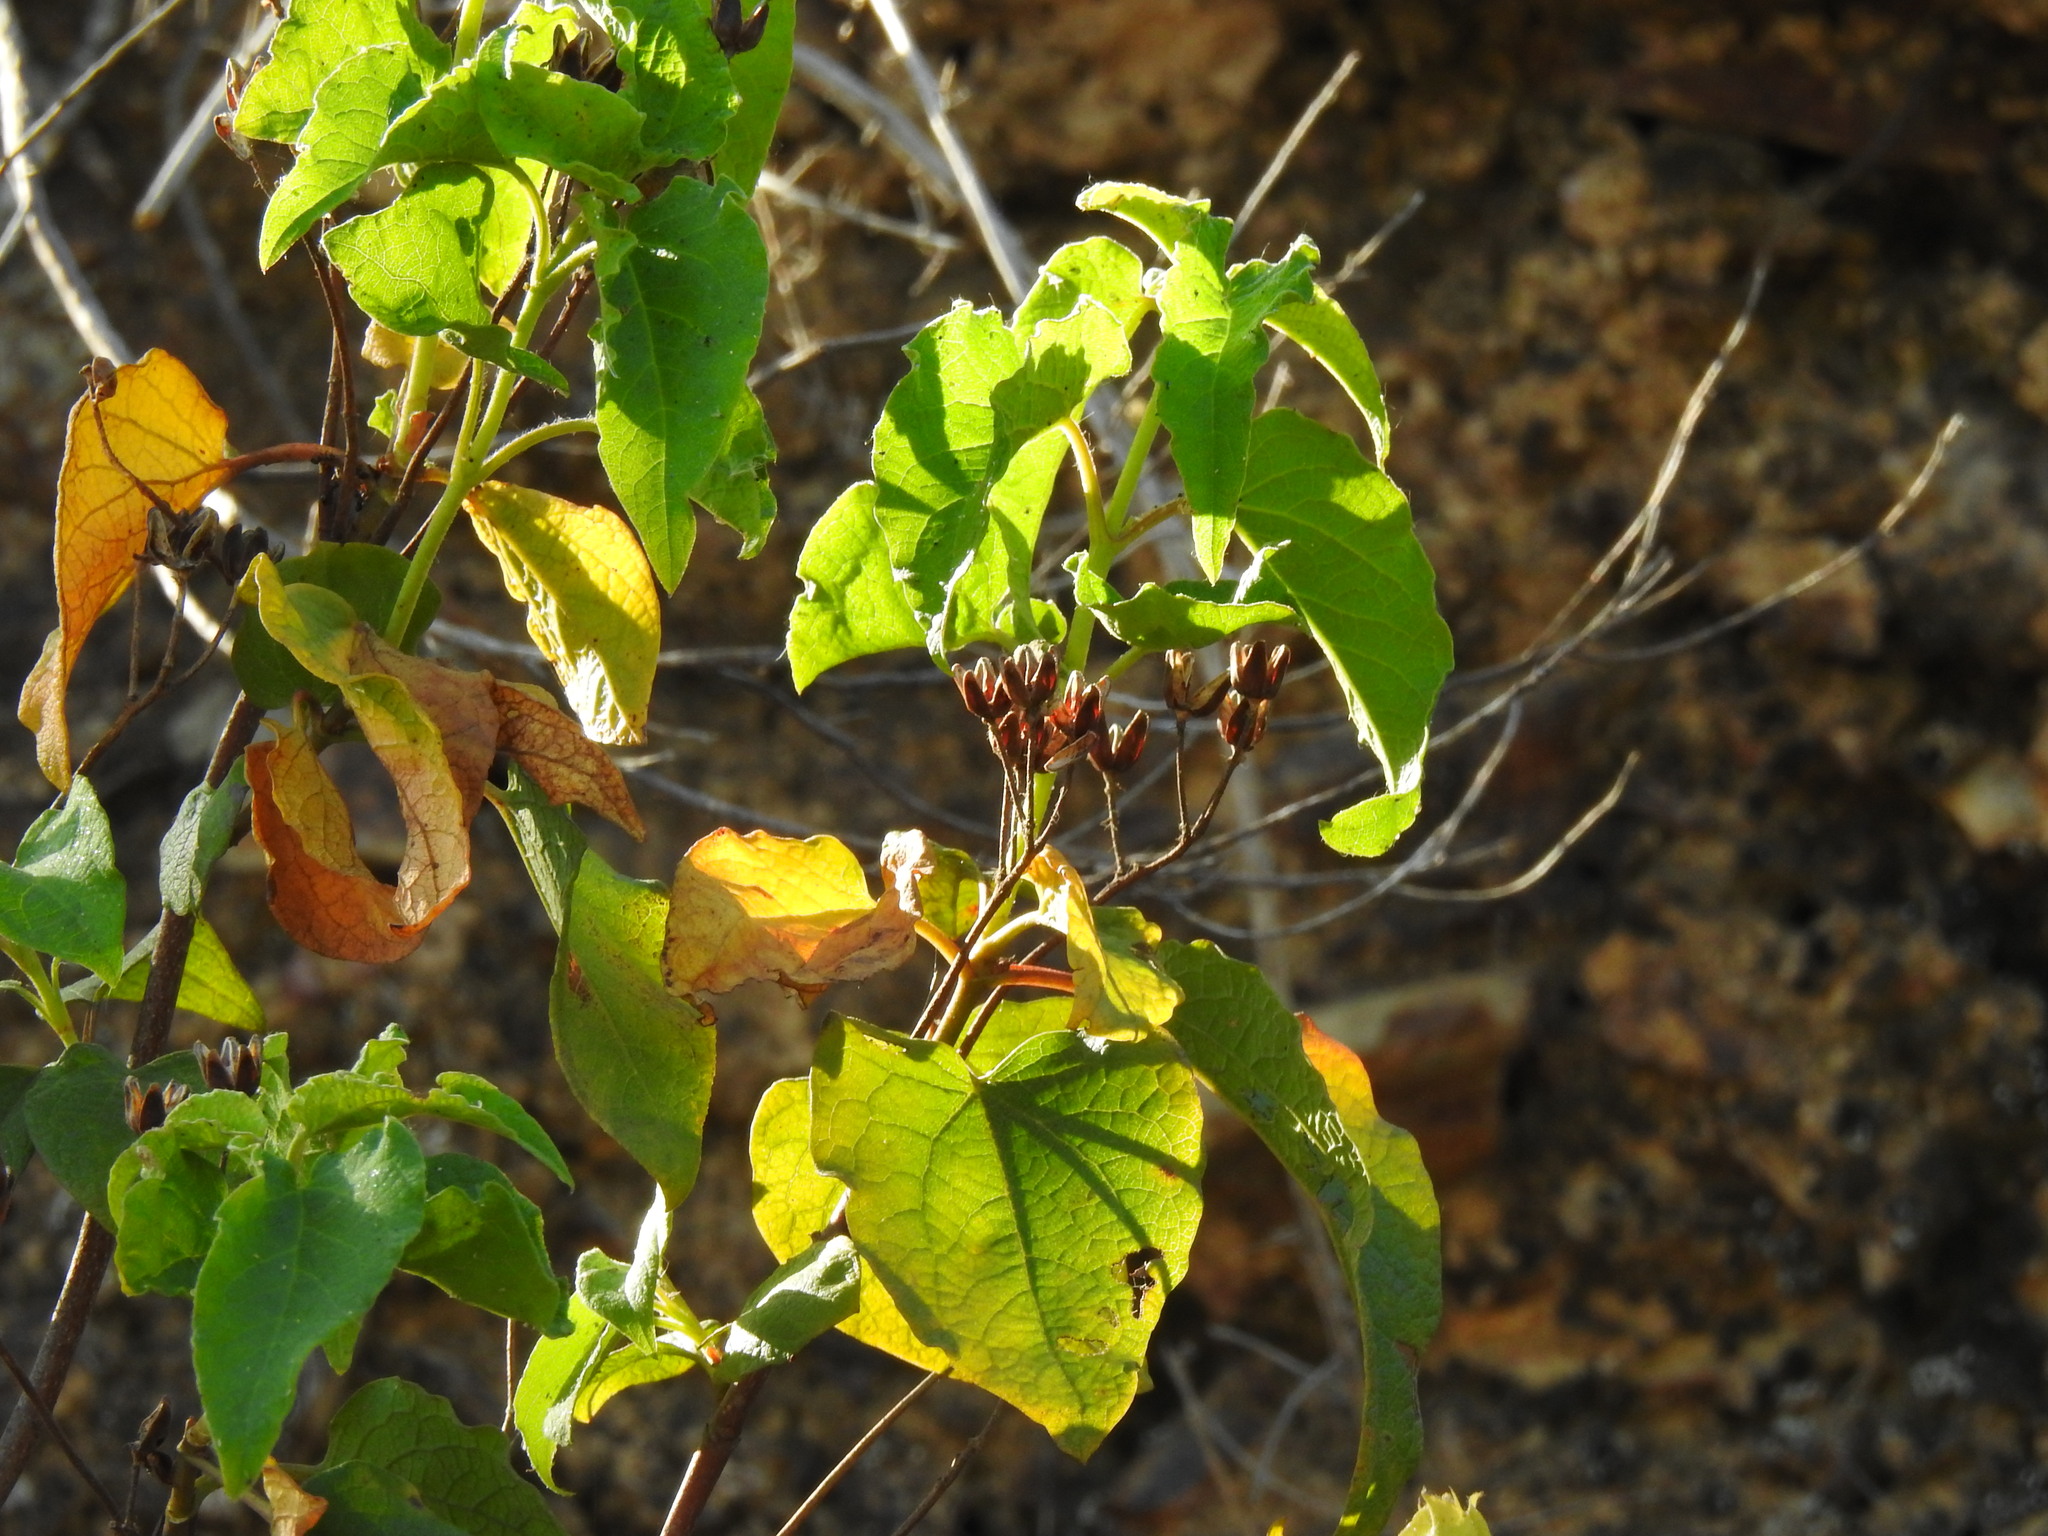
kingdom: Plantae
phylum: Tracheophyta
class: Magnoliopsida
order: Malvales
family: Cistaceae
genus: Cistus
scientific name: Cistus populifolius
